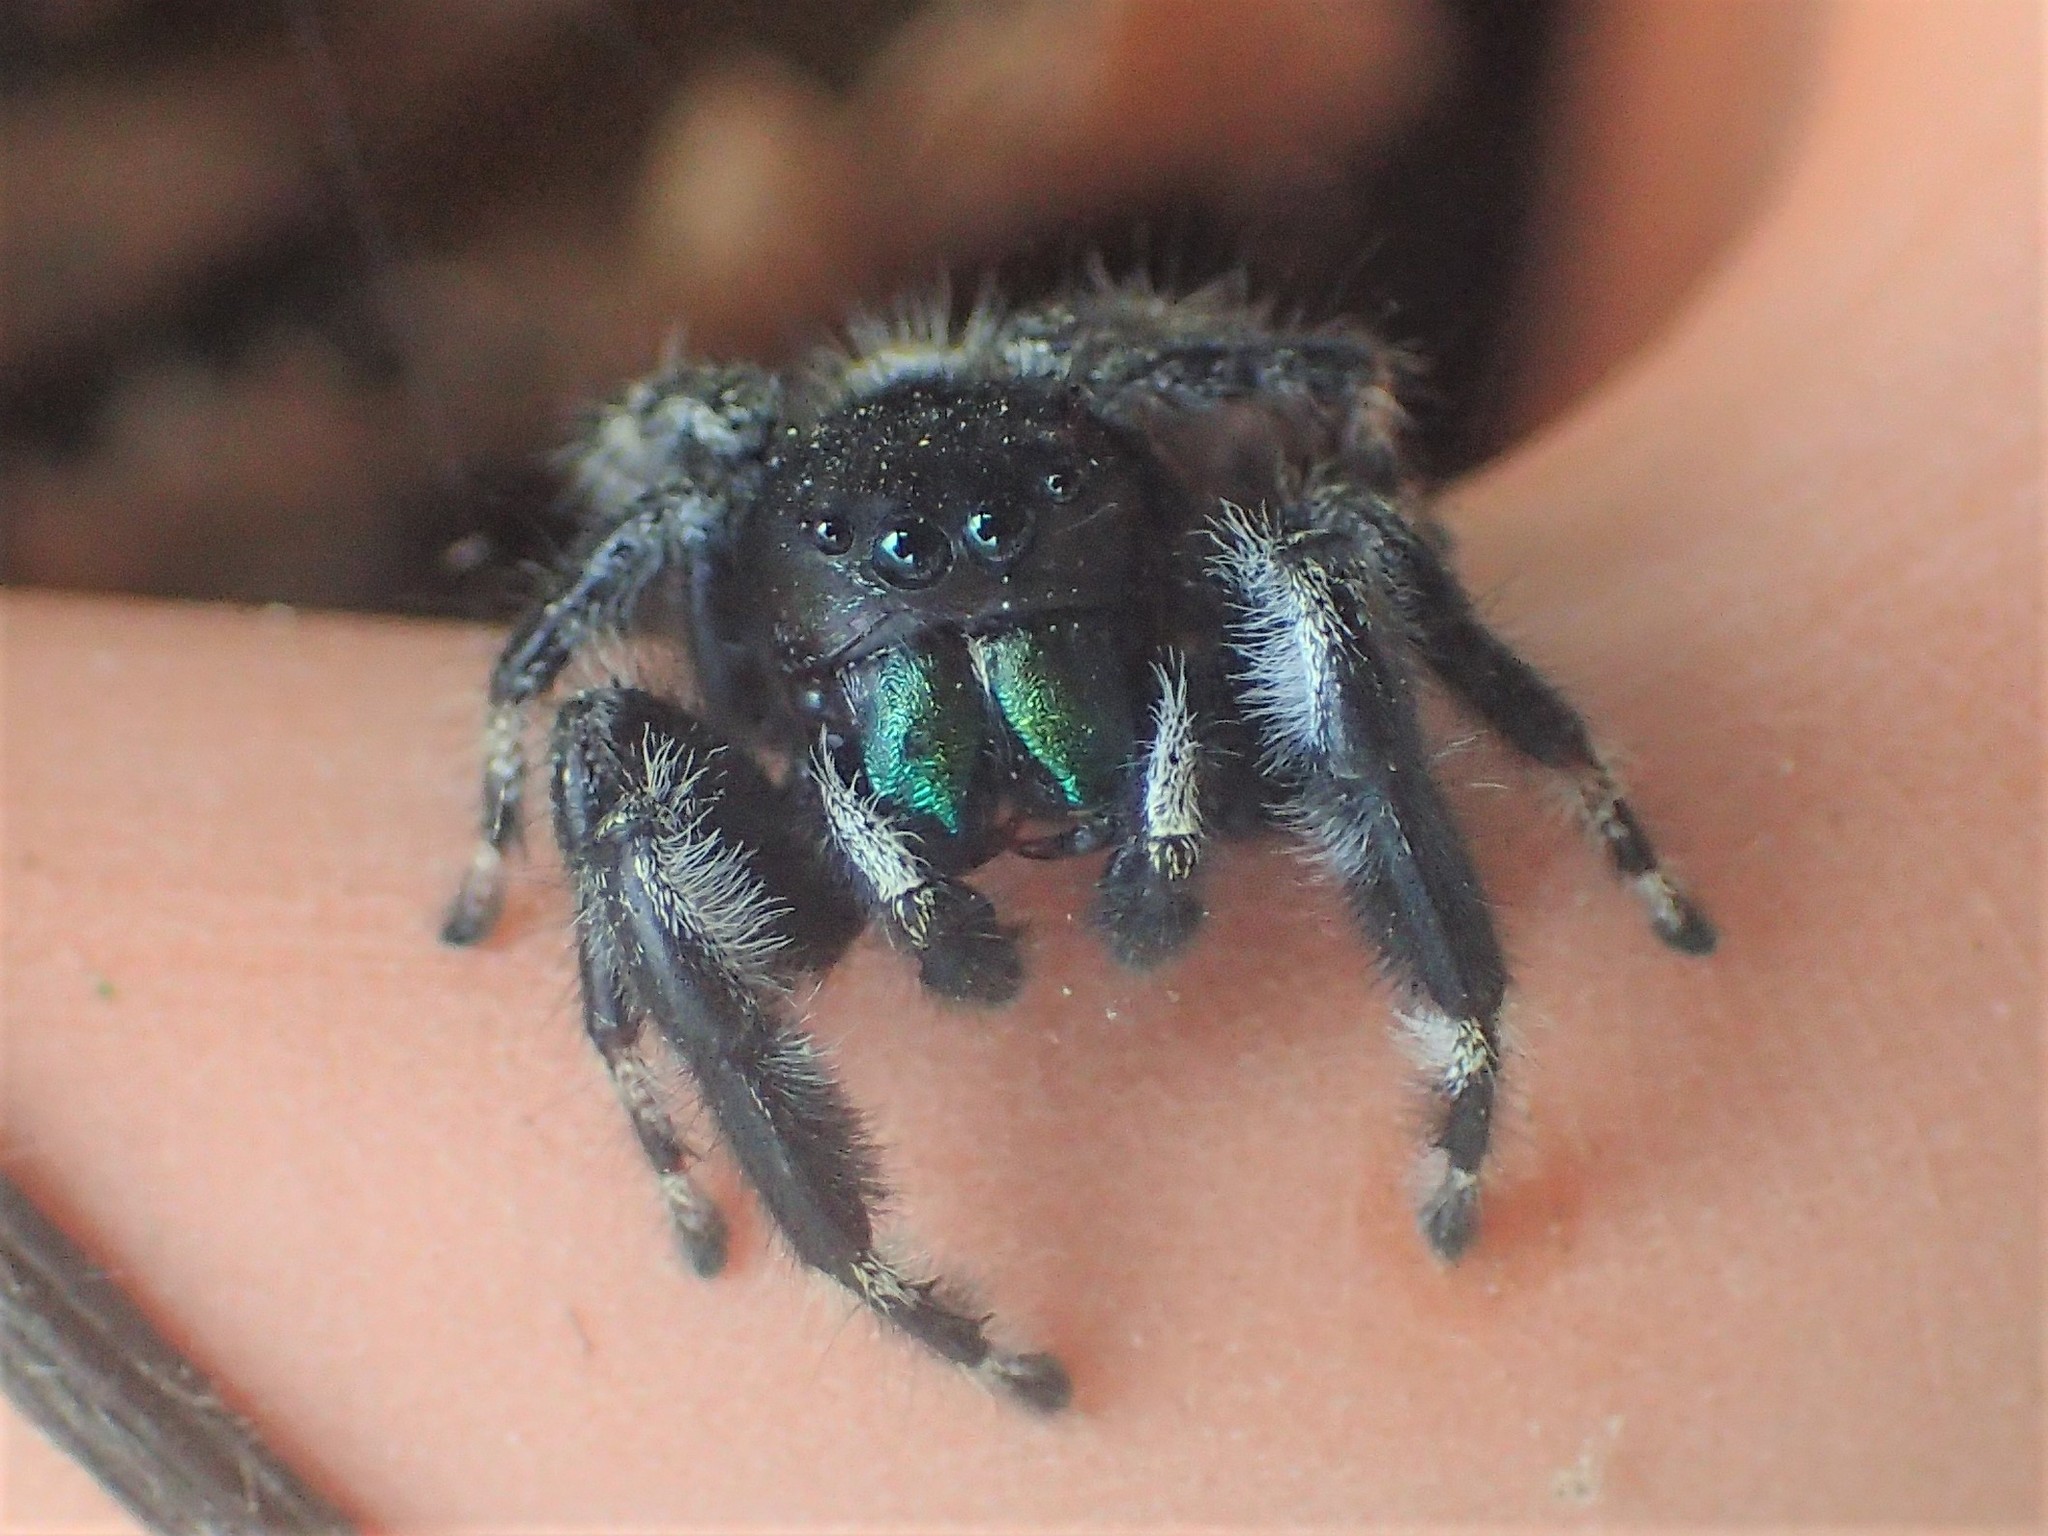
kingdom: Animalia
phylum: Arthropoda
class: Arachnida
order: Araneae
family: Salticidae
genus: Phidippus
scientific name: Phidippus audax
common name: Bold jumper
